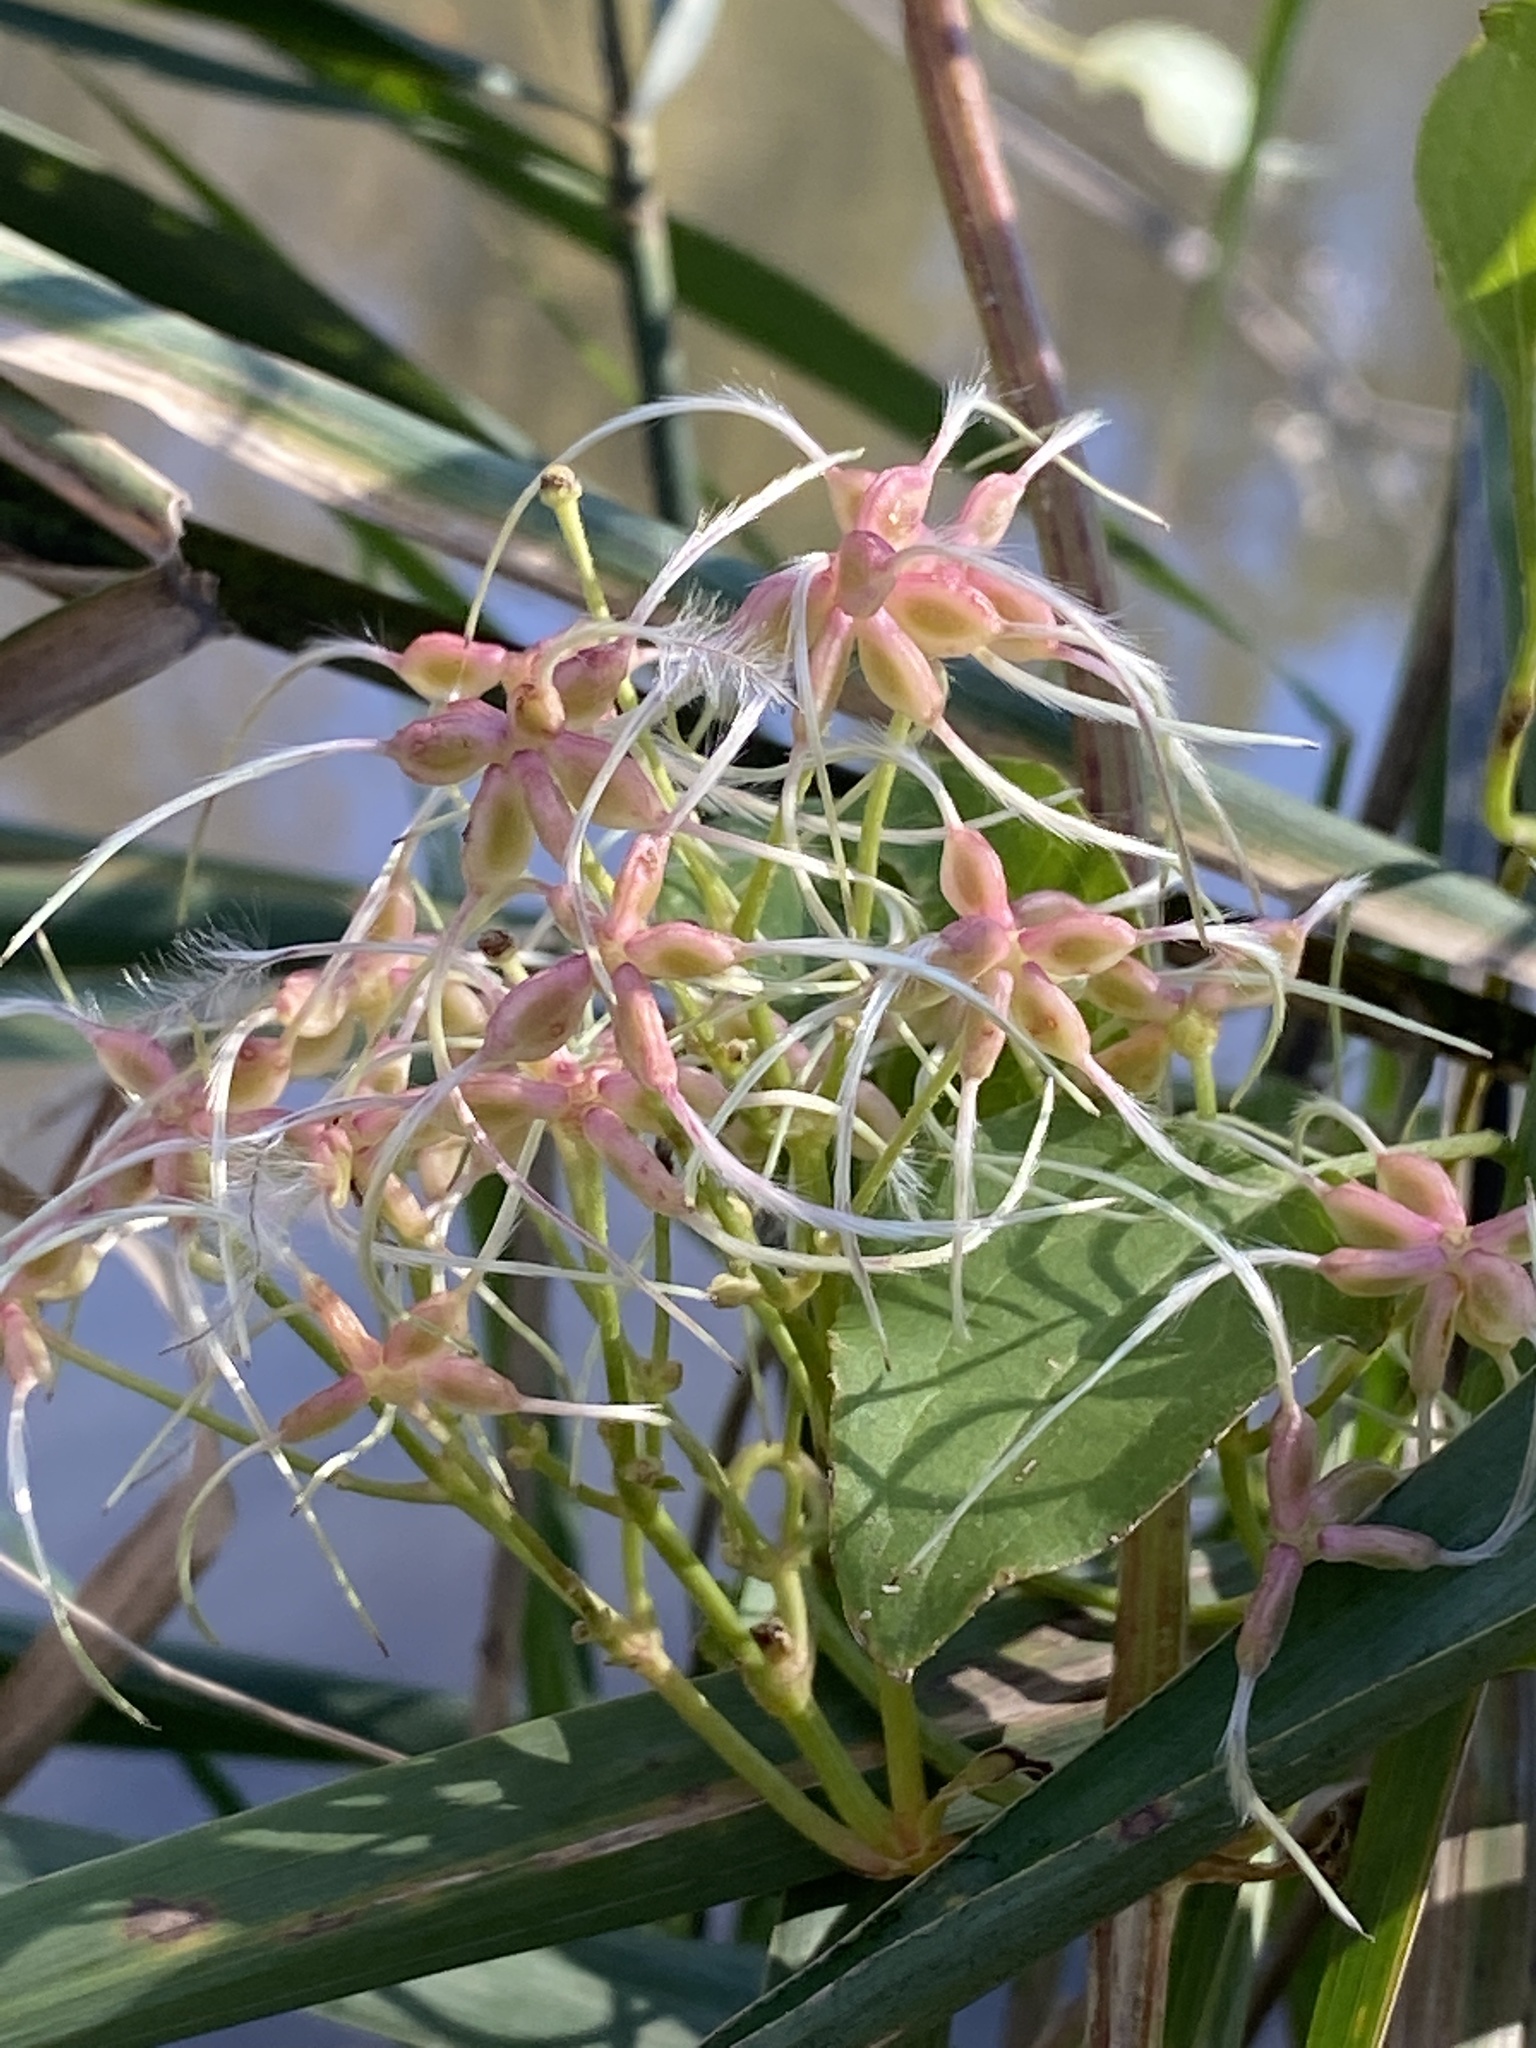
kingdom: Plantae
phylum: Tracheophyta
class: Magnoliopsida
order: Ranunculales
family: Ranunculaceae
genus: Clematis
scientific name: Clematis terniflora
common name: Sweet autumn clematis
